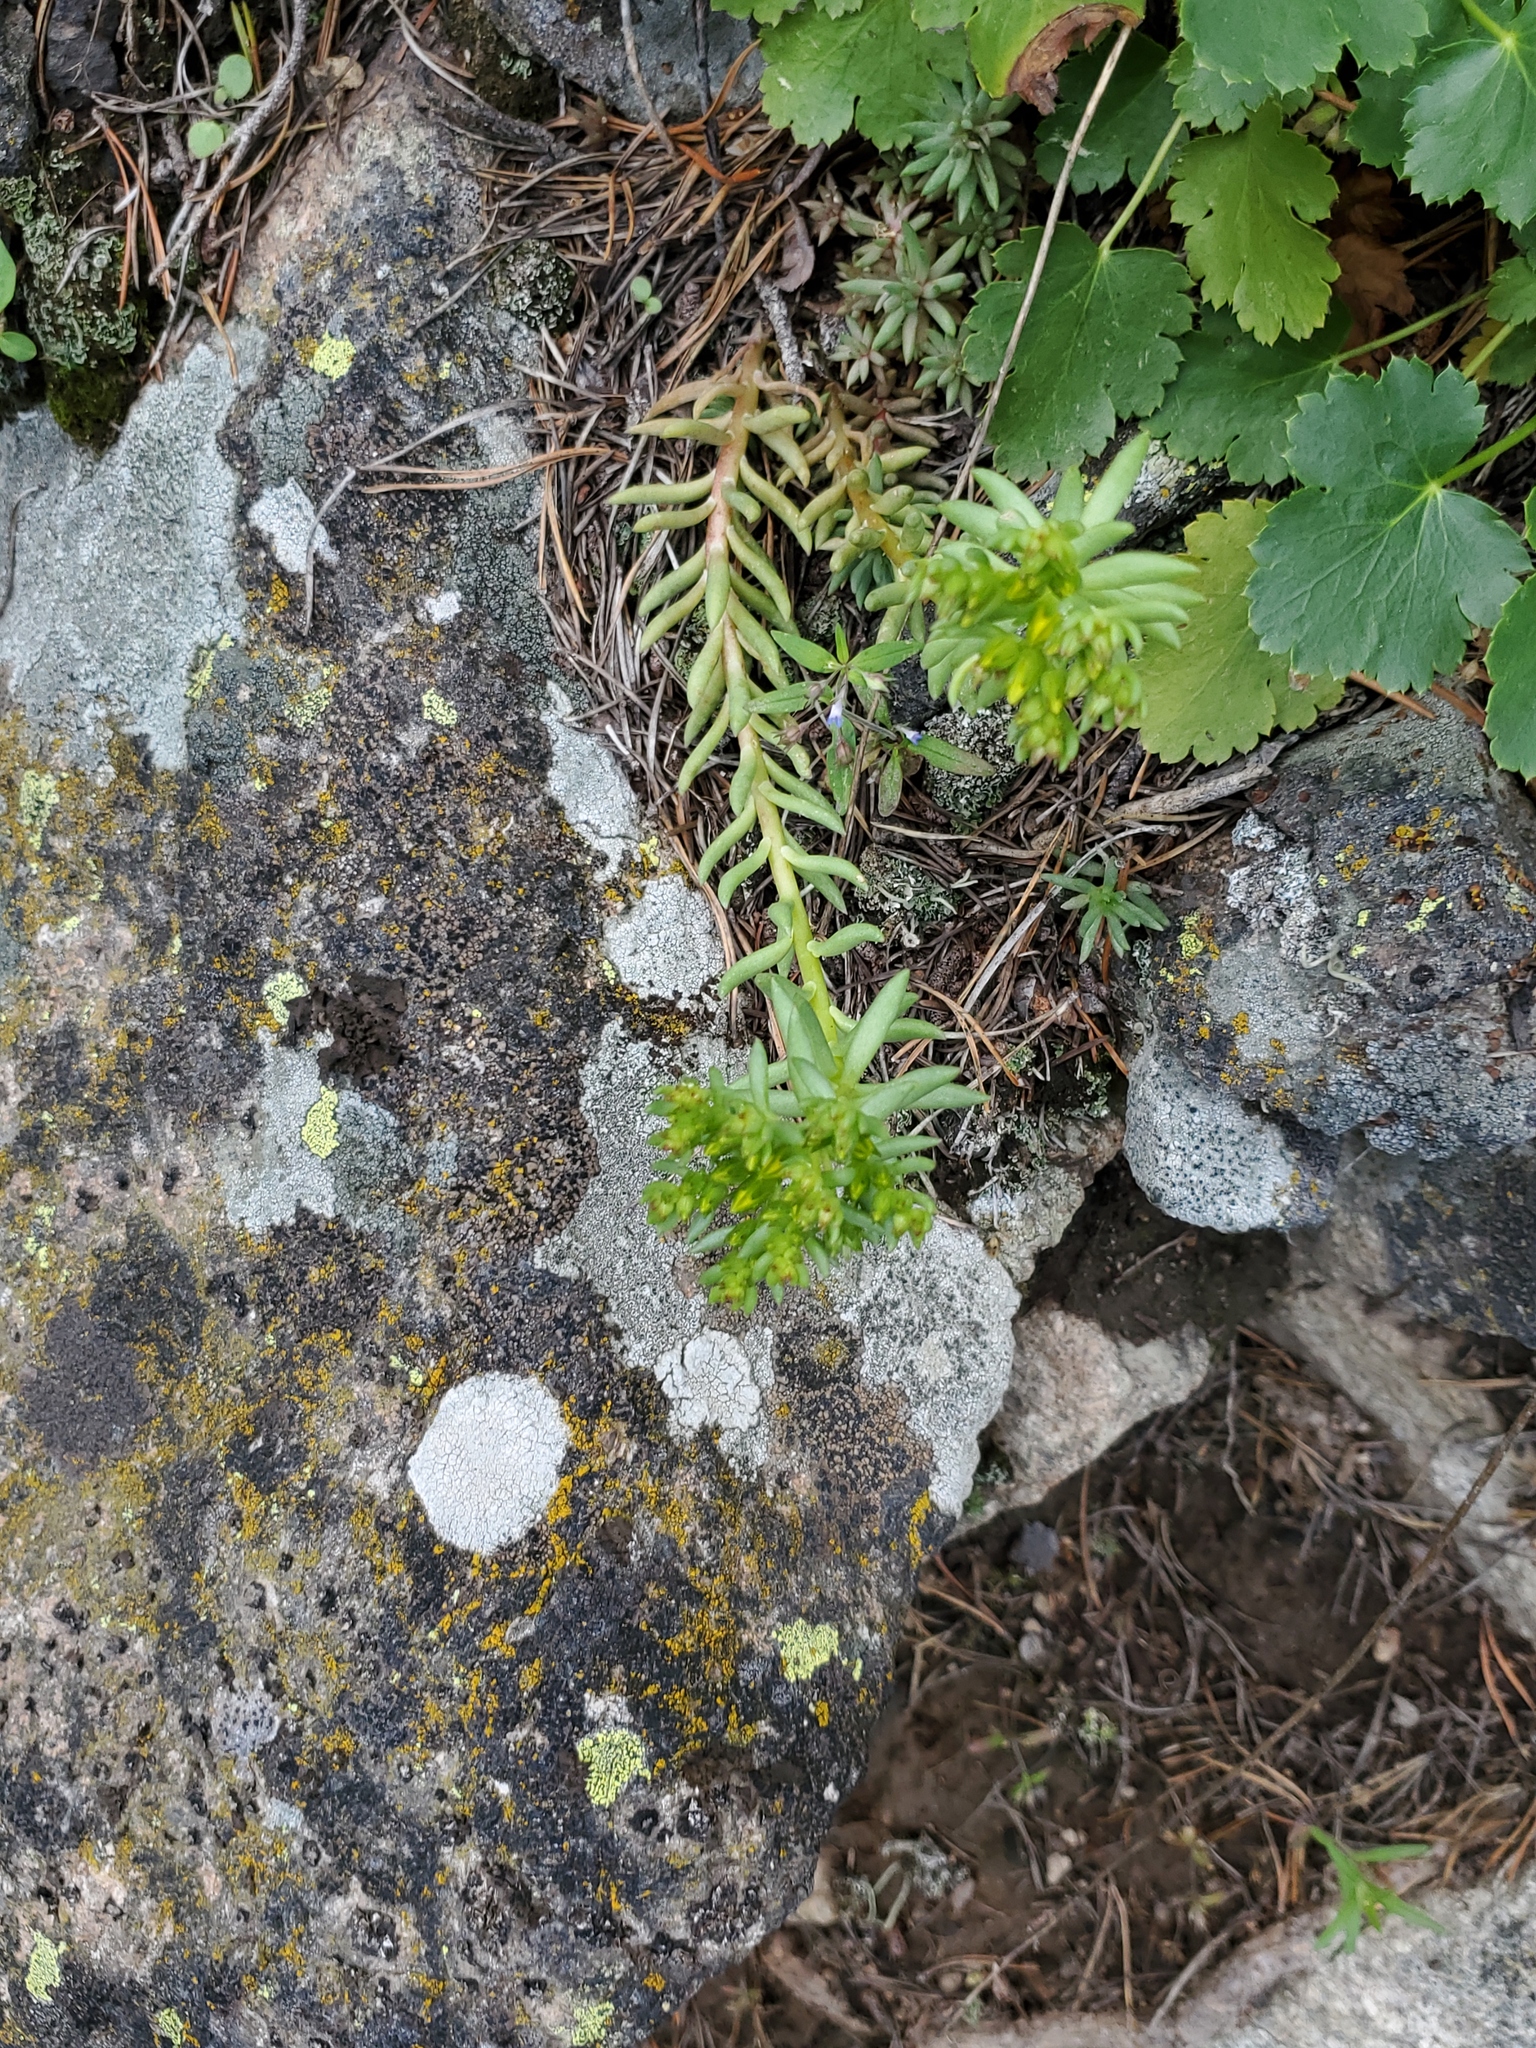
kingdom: Plantae
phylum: Tracheophyta
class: Magnoliopsida
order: Saxifragales
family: Crassulaceae
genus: Sedum
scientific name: Sedum lanceolatum
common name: Common stonecrop
